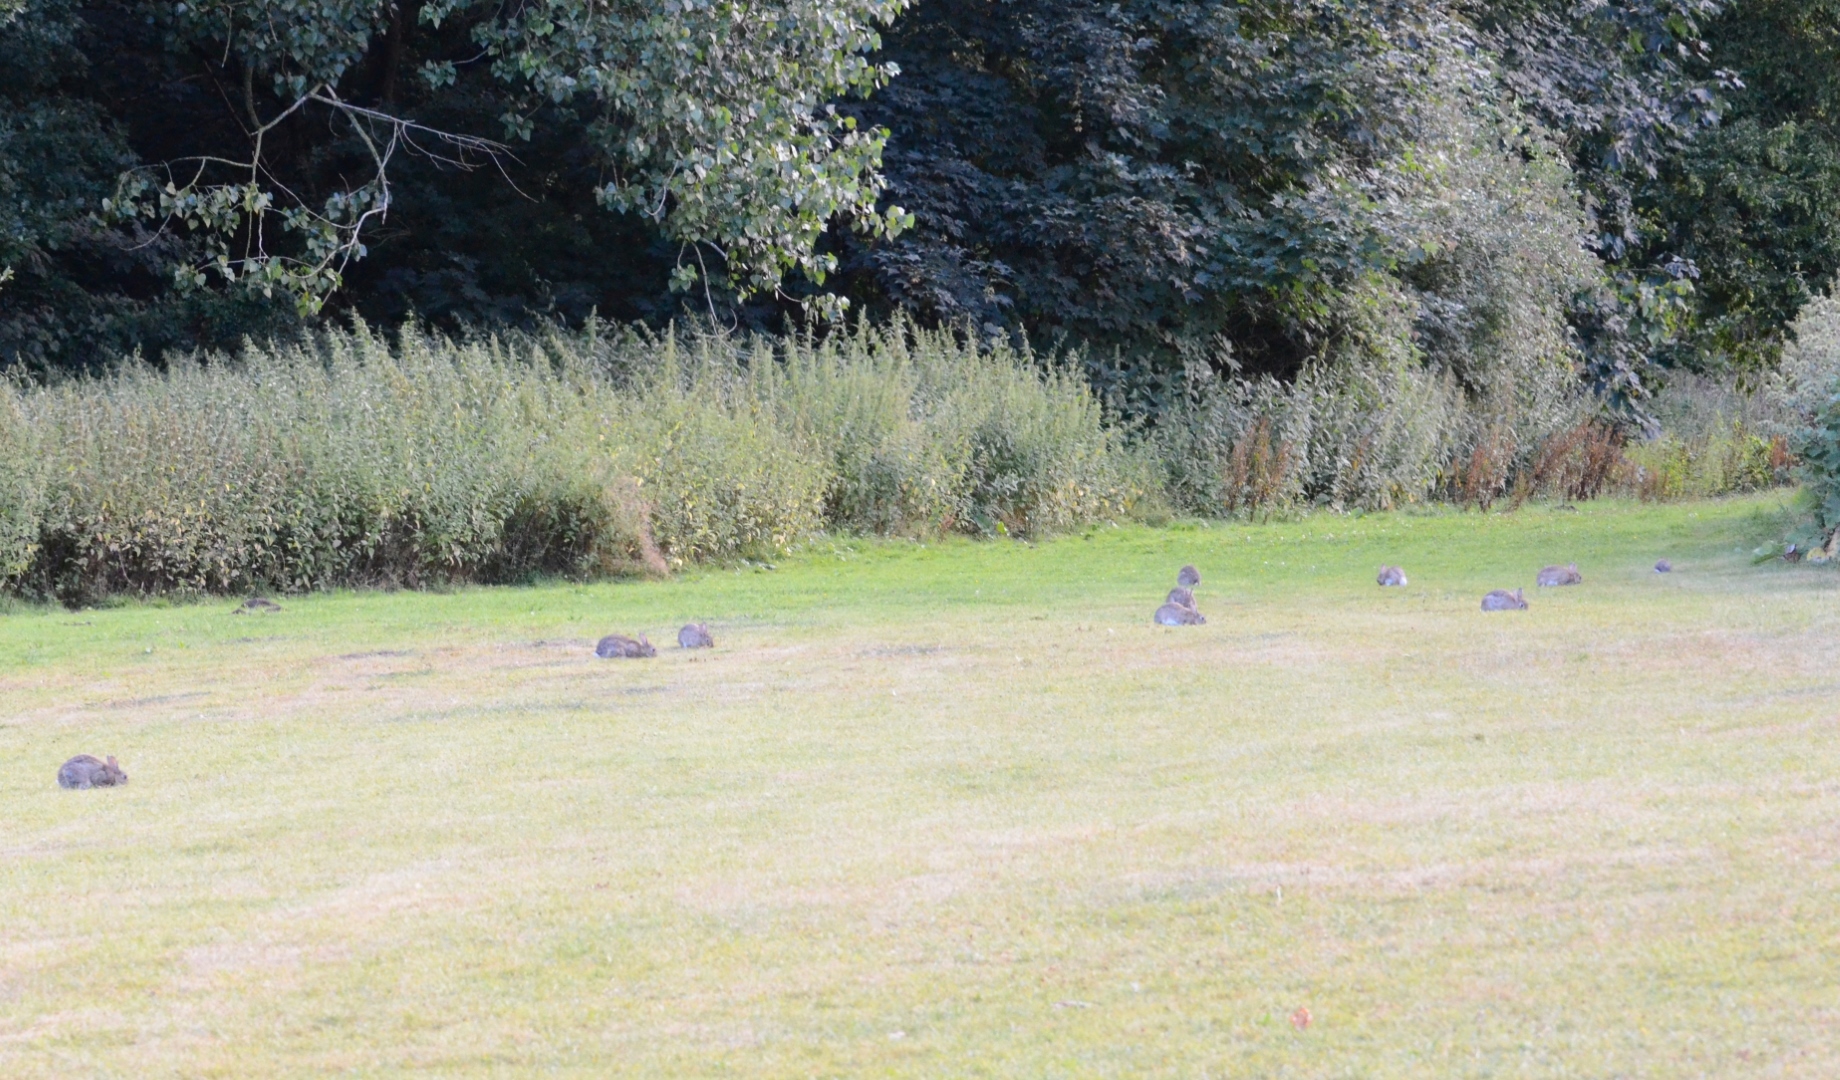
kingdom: Animalia
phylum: Chordata
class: Mammalia
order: Lagomorpha
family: Leporidae
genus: Oryctolagus
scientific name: Oryctolagus cuniculus
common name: European rabbit
